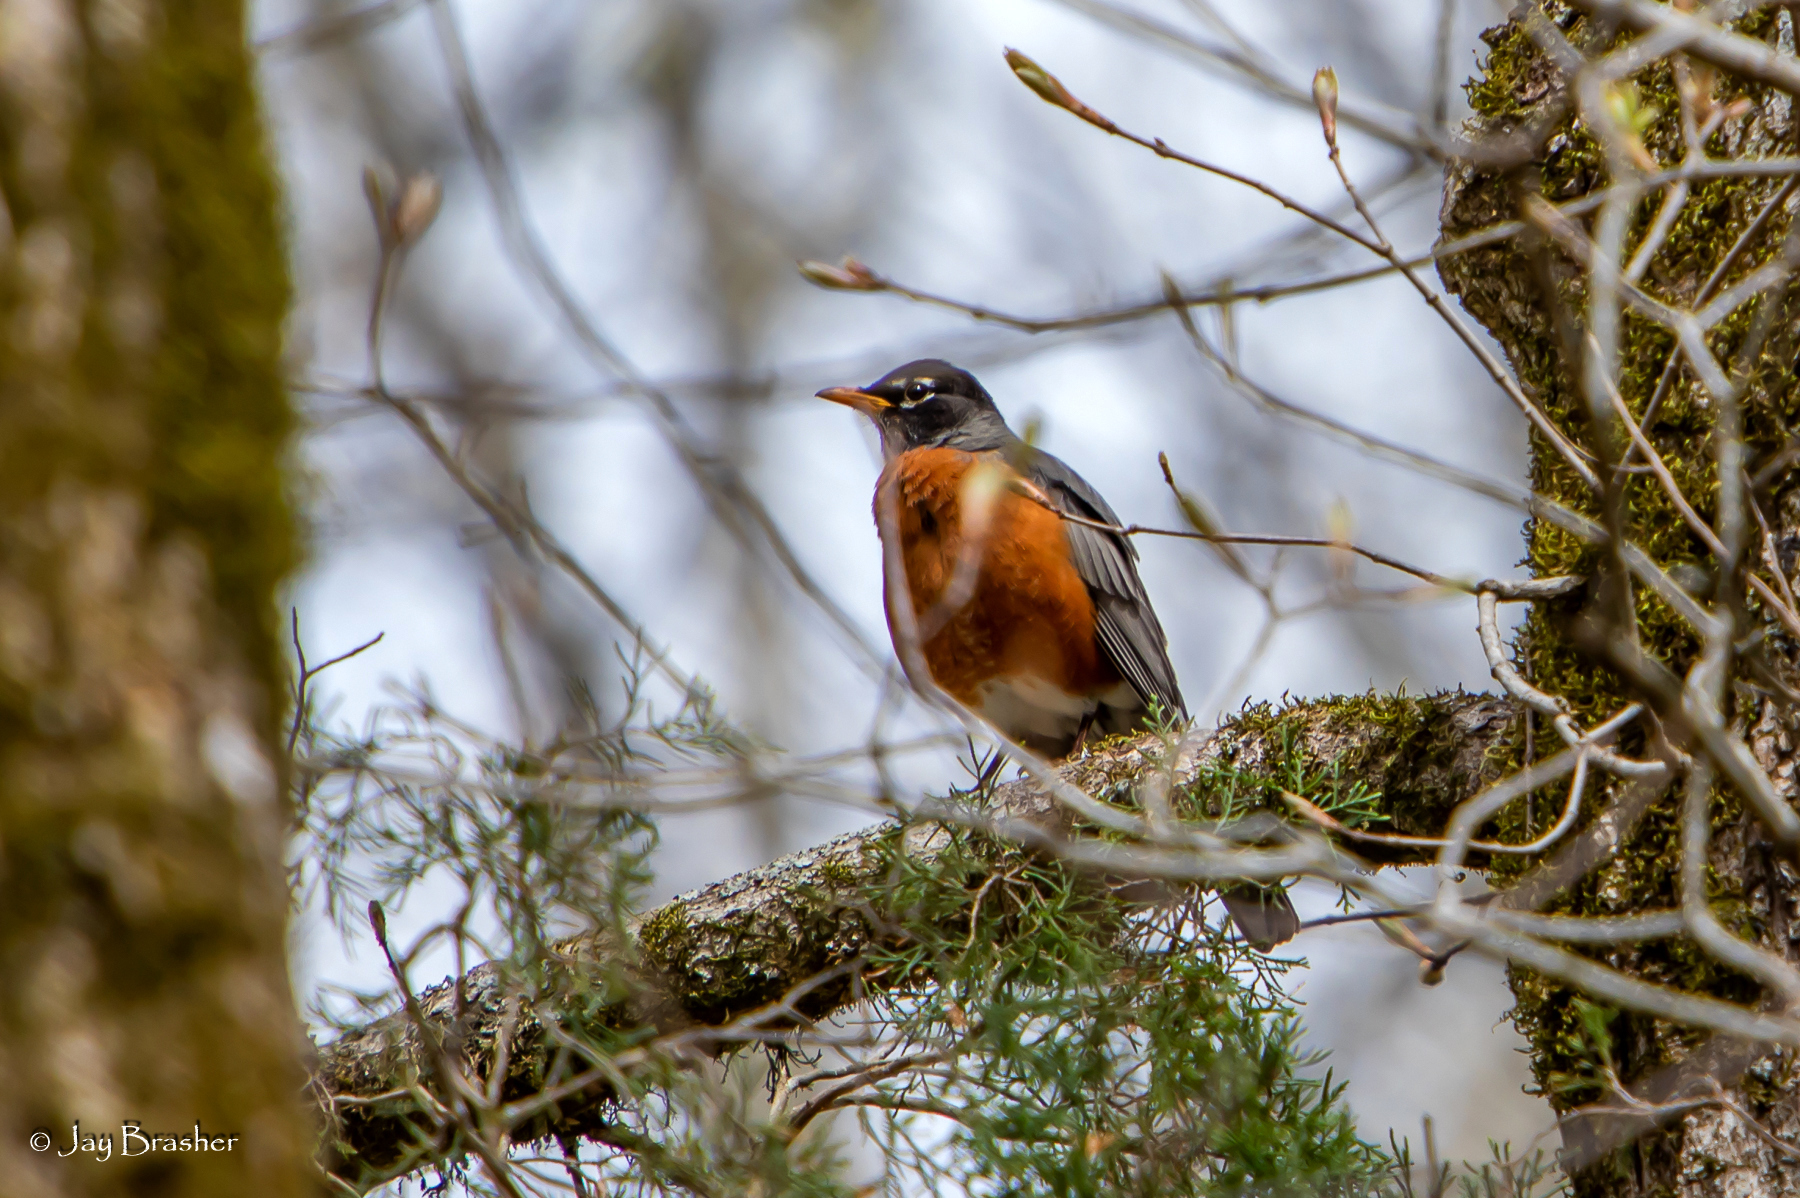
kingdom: Animalia
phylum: Chordata
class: Aves
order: Passeriformes
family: Turdidae
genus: Turdus
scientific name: Turdus migratorius
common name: American robin
